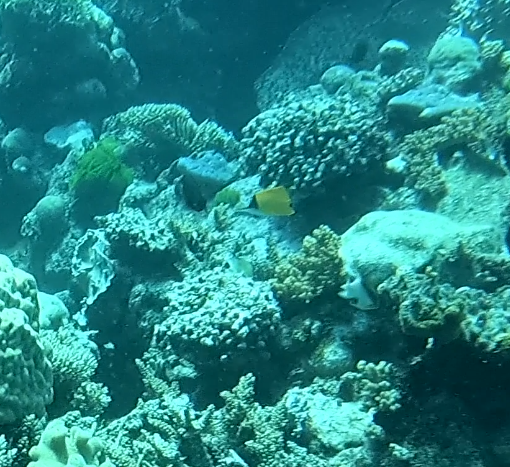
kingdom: Animalia
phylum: Chordata
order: Perciformes
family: Chaetodontidae
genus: Forcipiger
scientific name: Forcipiger flavissimus
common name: Forcepsfish
